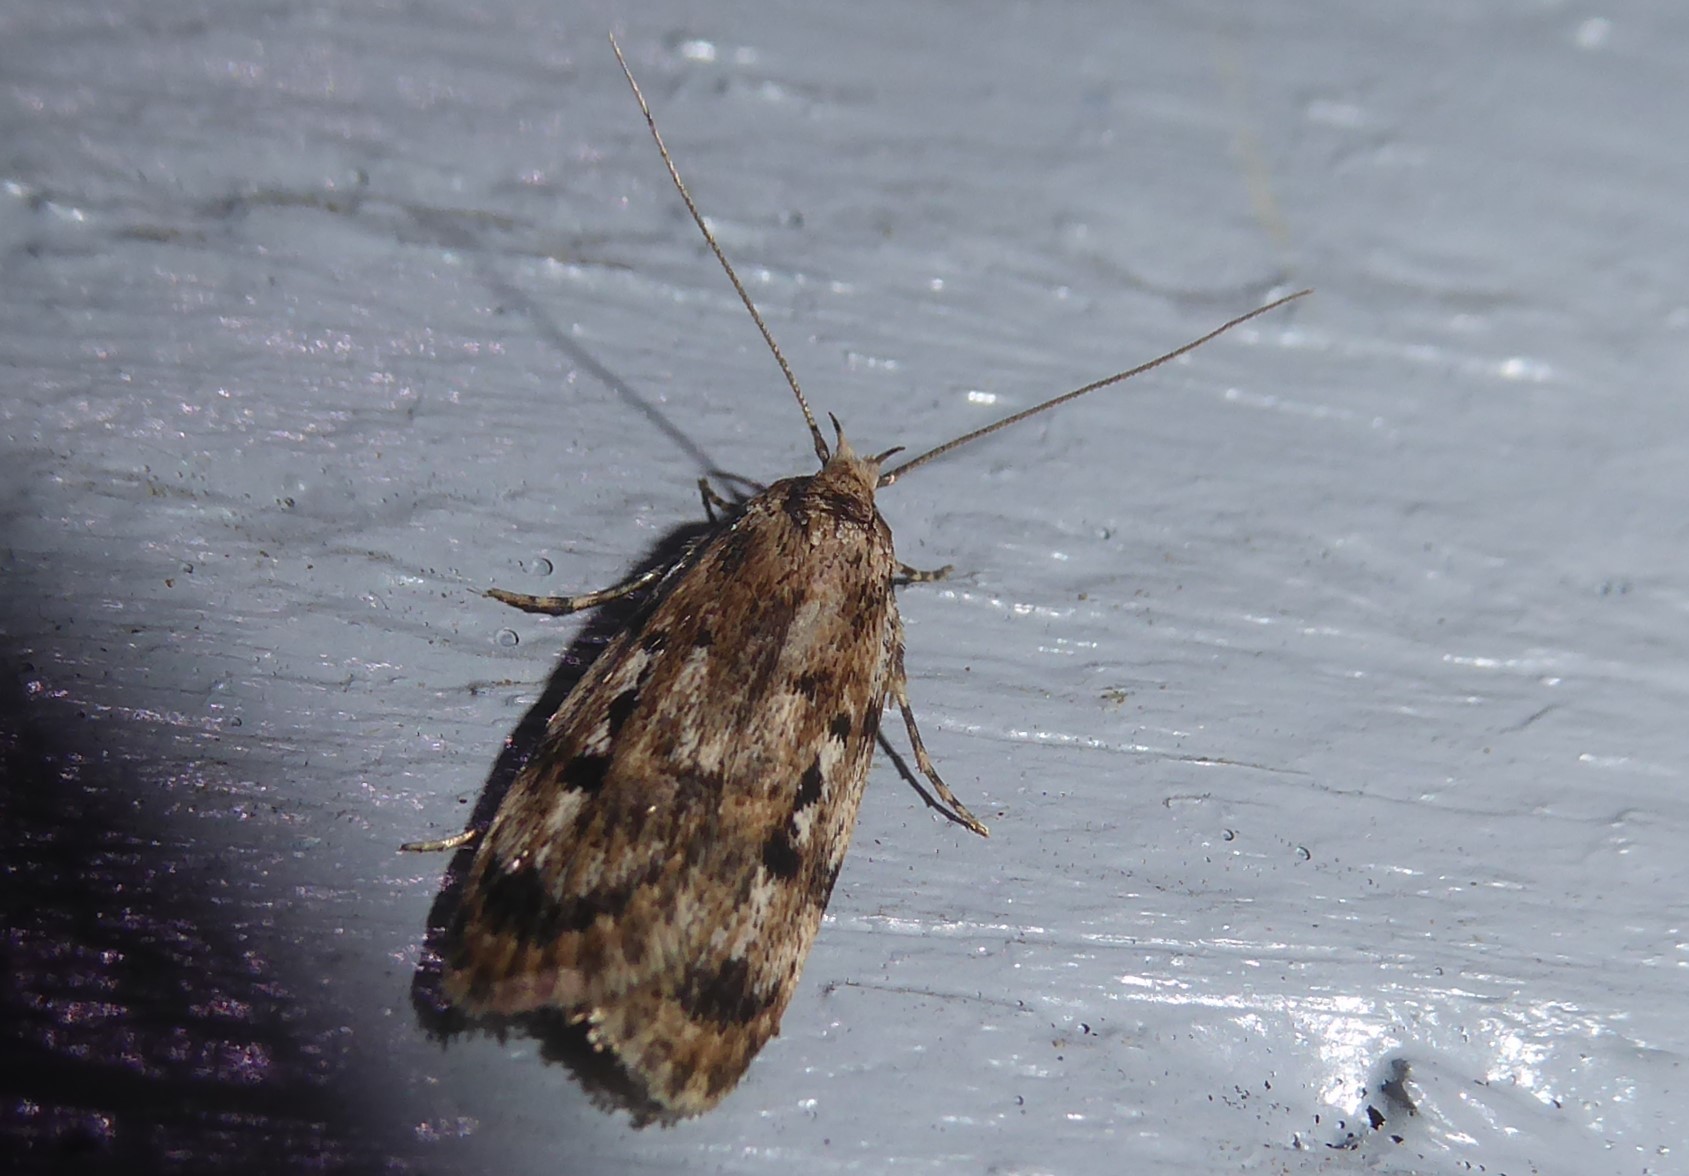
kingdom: Animalia
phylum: Arthropoda
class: Insecta
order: Lepidoptera
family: Oecophoridae
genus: Barea
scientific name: Barea exarcha
